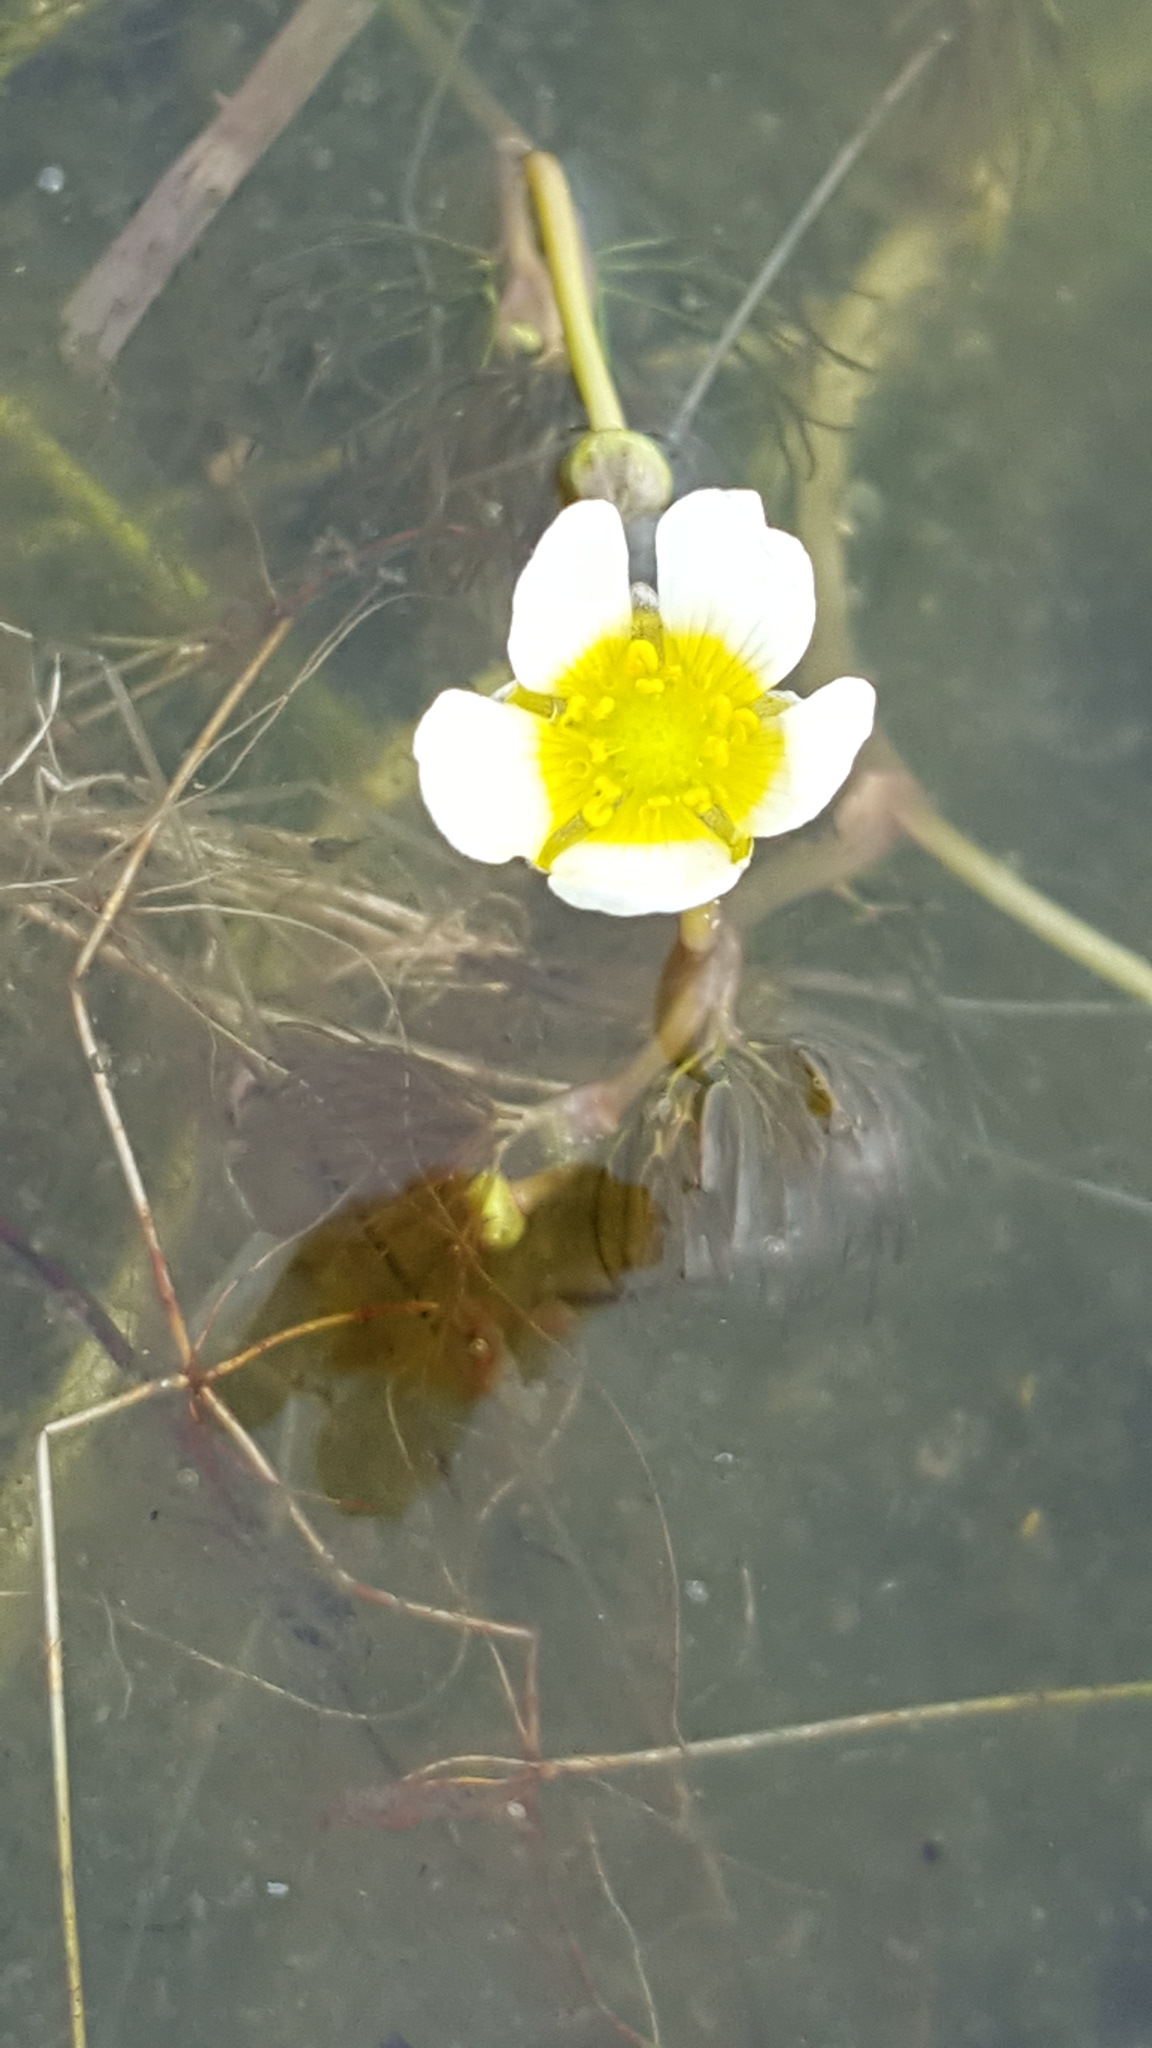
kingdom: Plantae
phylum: Tracheophyta
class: Magnoliopsida
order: Ranunculales
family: Ranunculaceae
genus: Ranunculus
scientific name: Ranunculus aquatilis
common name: Common water-crowfoot
